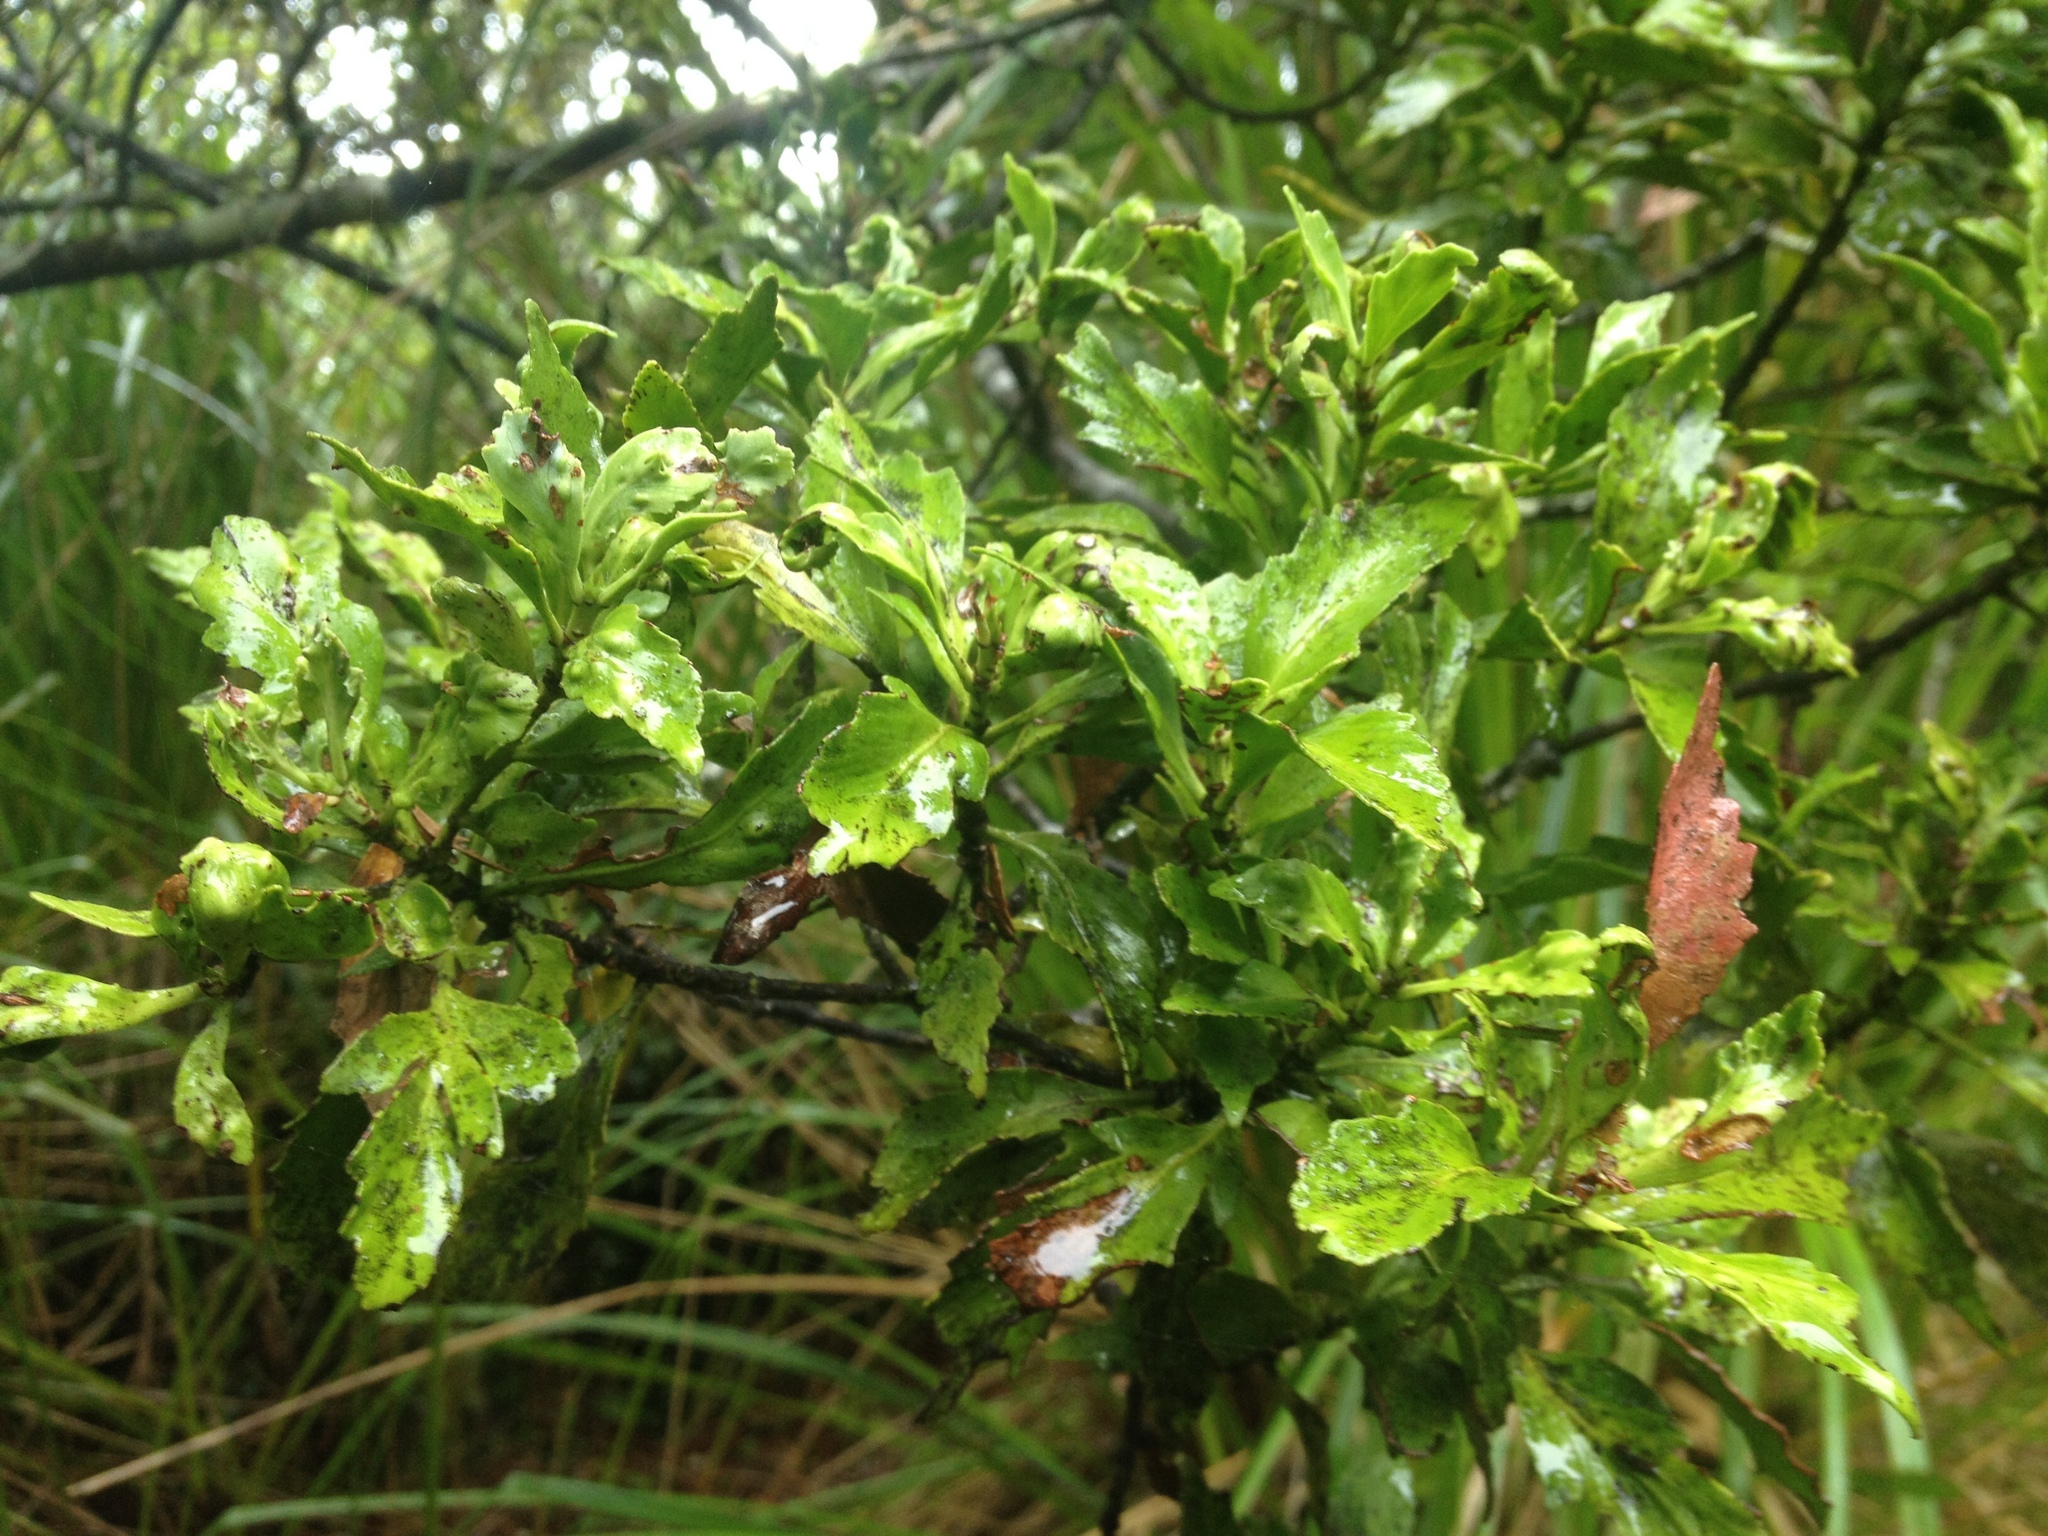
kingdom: Plantae
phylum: Tracheophyta
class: Pinopsida
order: Pinales
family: Phyllocladaceae
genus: Phyllocladus
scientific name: Phyllocladus trichomanoides
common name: Celery pine
